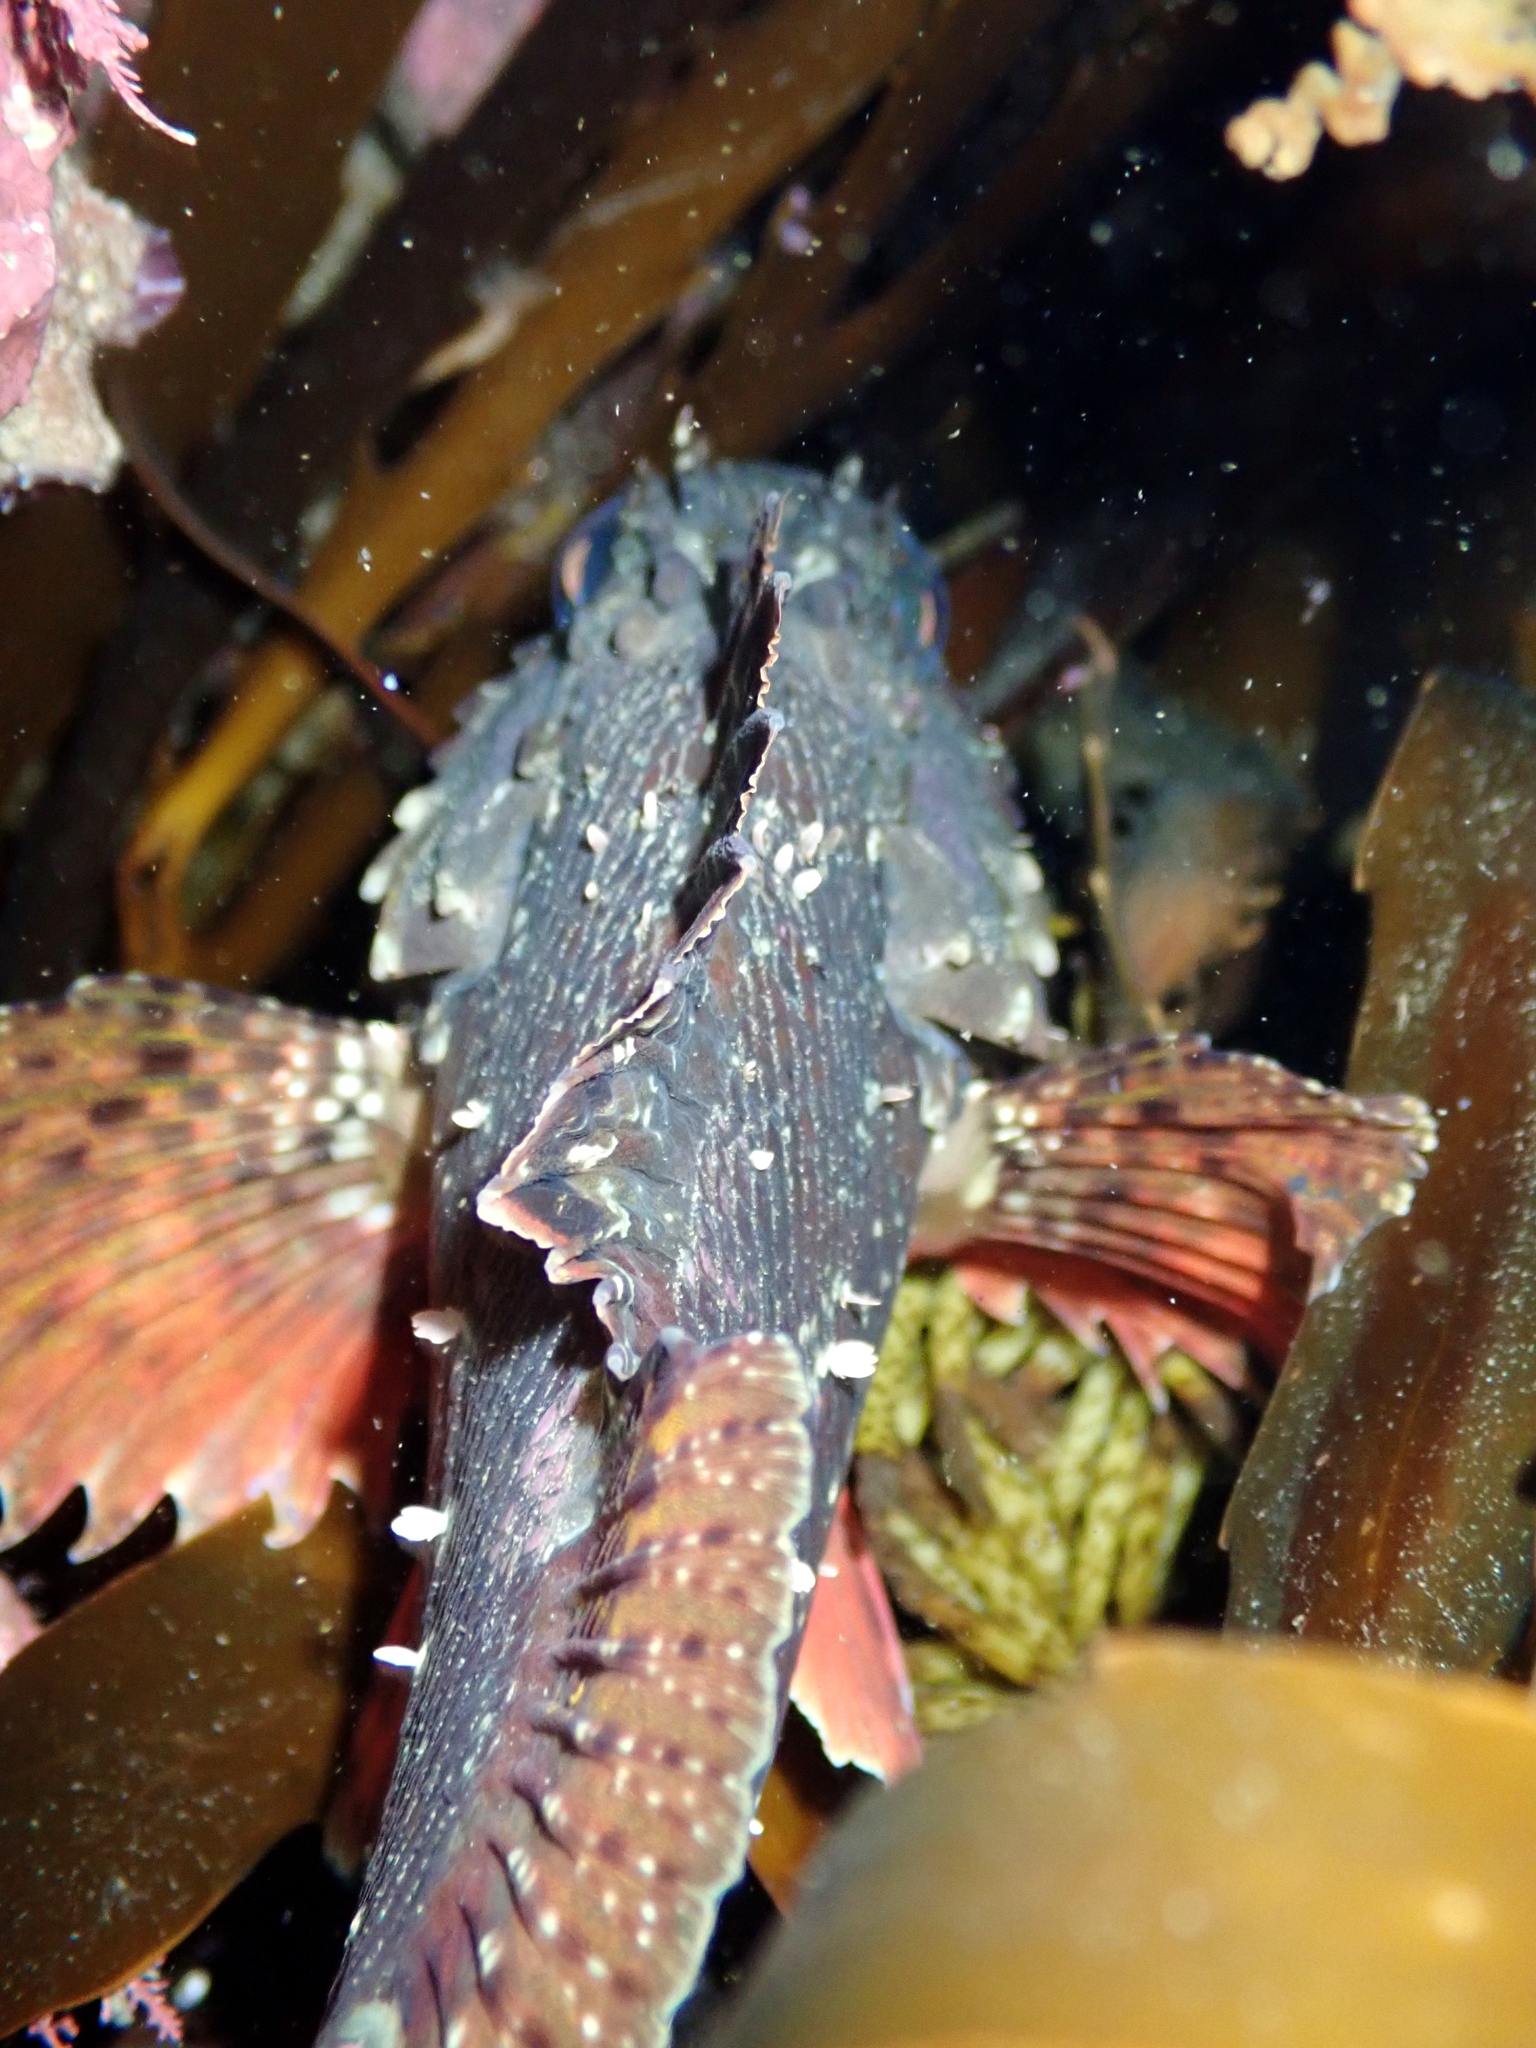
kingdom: Animalia
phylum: Chordata
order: Scorpaeniformes
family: Scorpaenidae
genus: Scorpaena
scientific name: Scorpaena papillosa
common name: Chained scorpionfish
